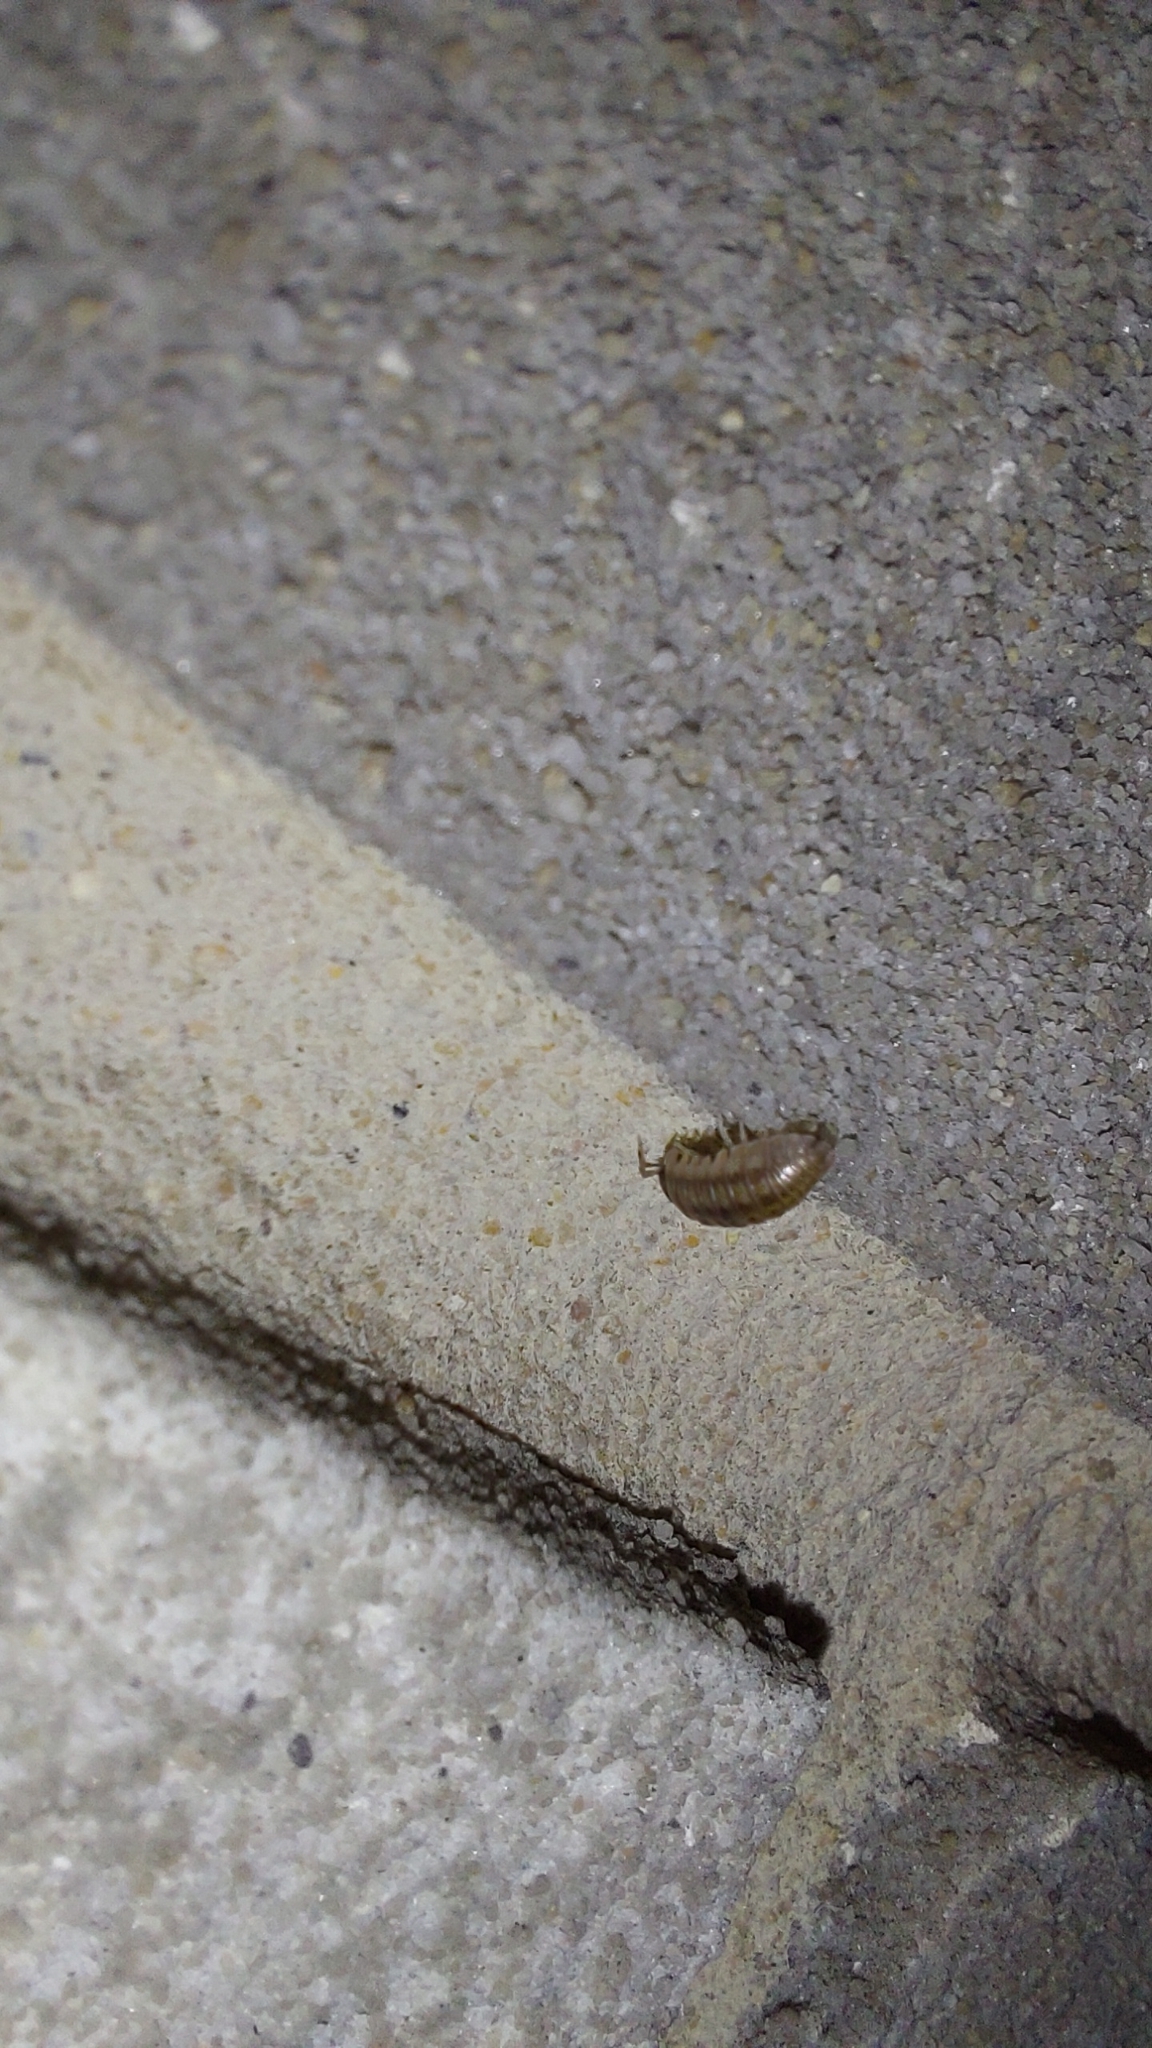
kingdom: Animalia
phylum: Arthropoda
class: Malacostraca
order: Isopoda
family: Armadillidiidae
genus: Armadillidium
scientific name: Armadillidium nasatum
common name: Isopod
